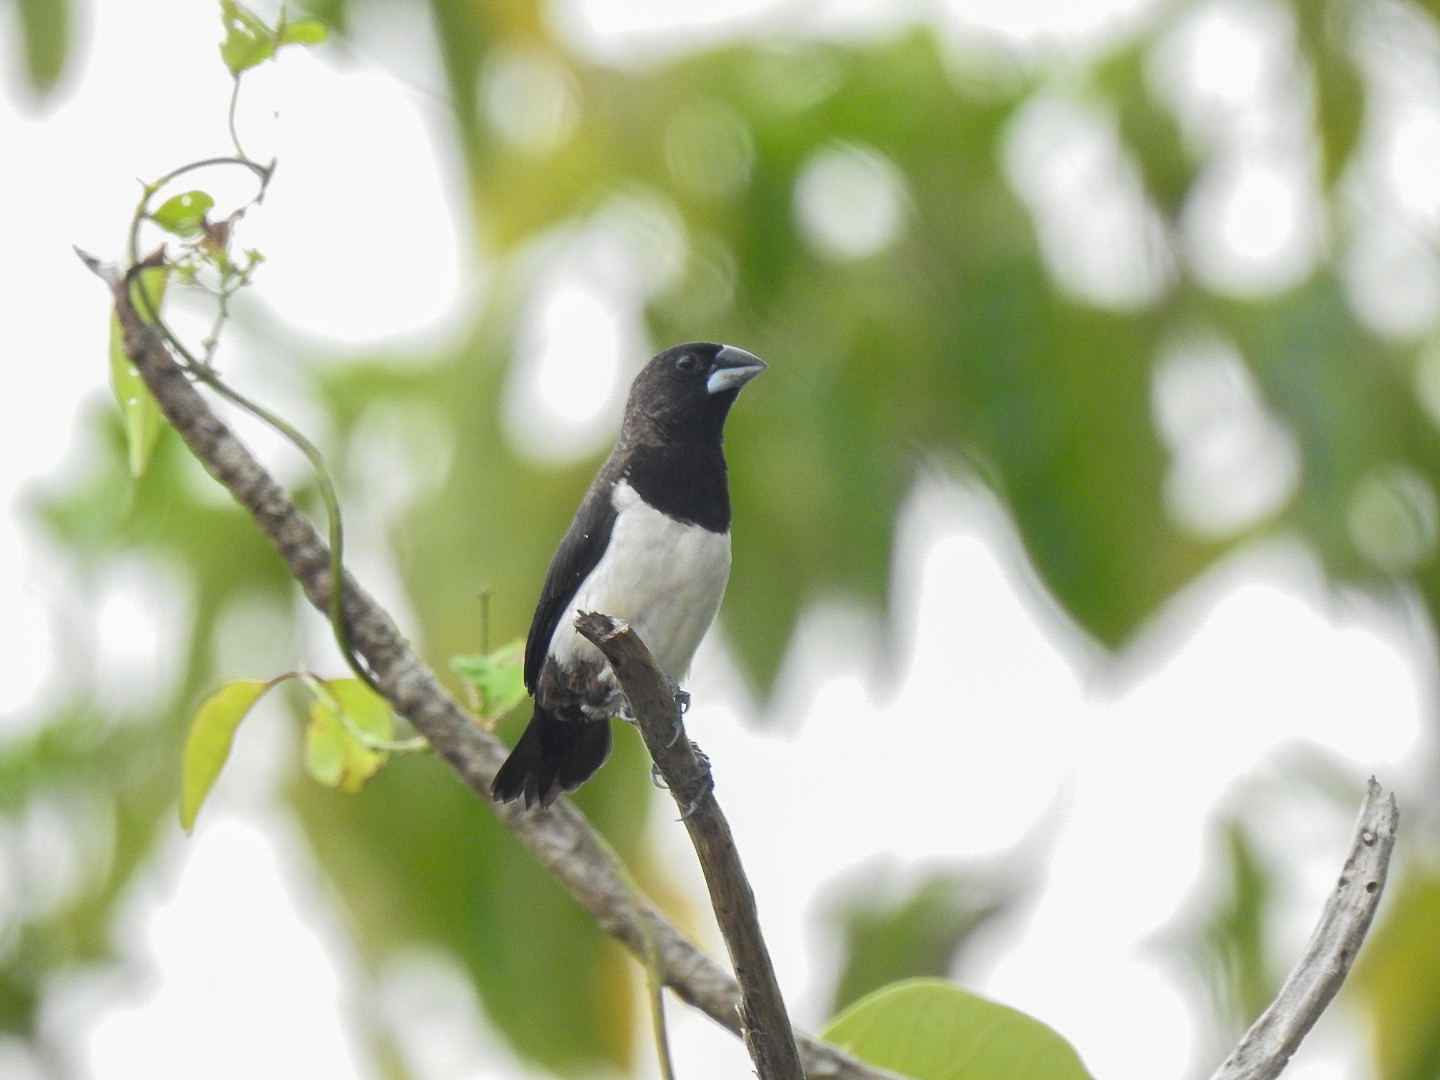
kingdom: Animalia
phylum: Chordata
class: Aves
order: Passeriformes
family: Estrildidae
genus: Lonchura
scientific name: Lonchura striata
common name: White-rumped munia
